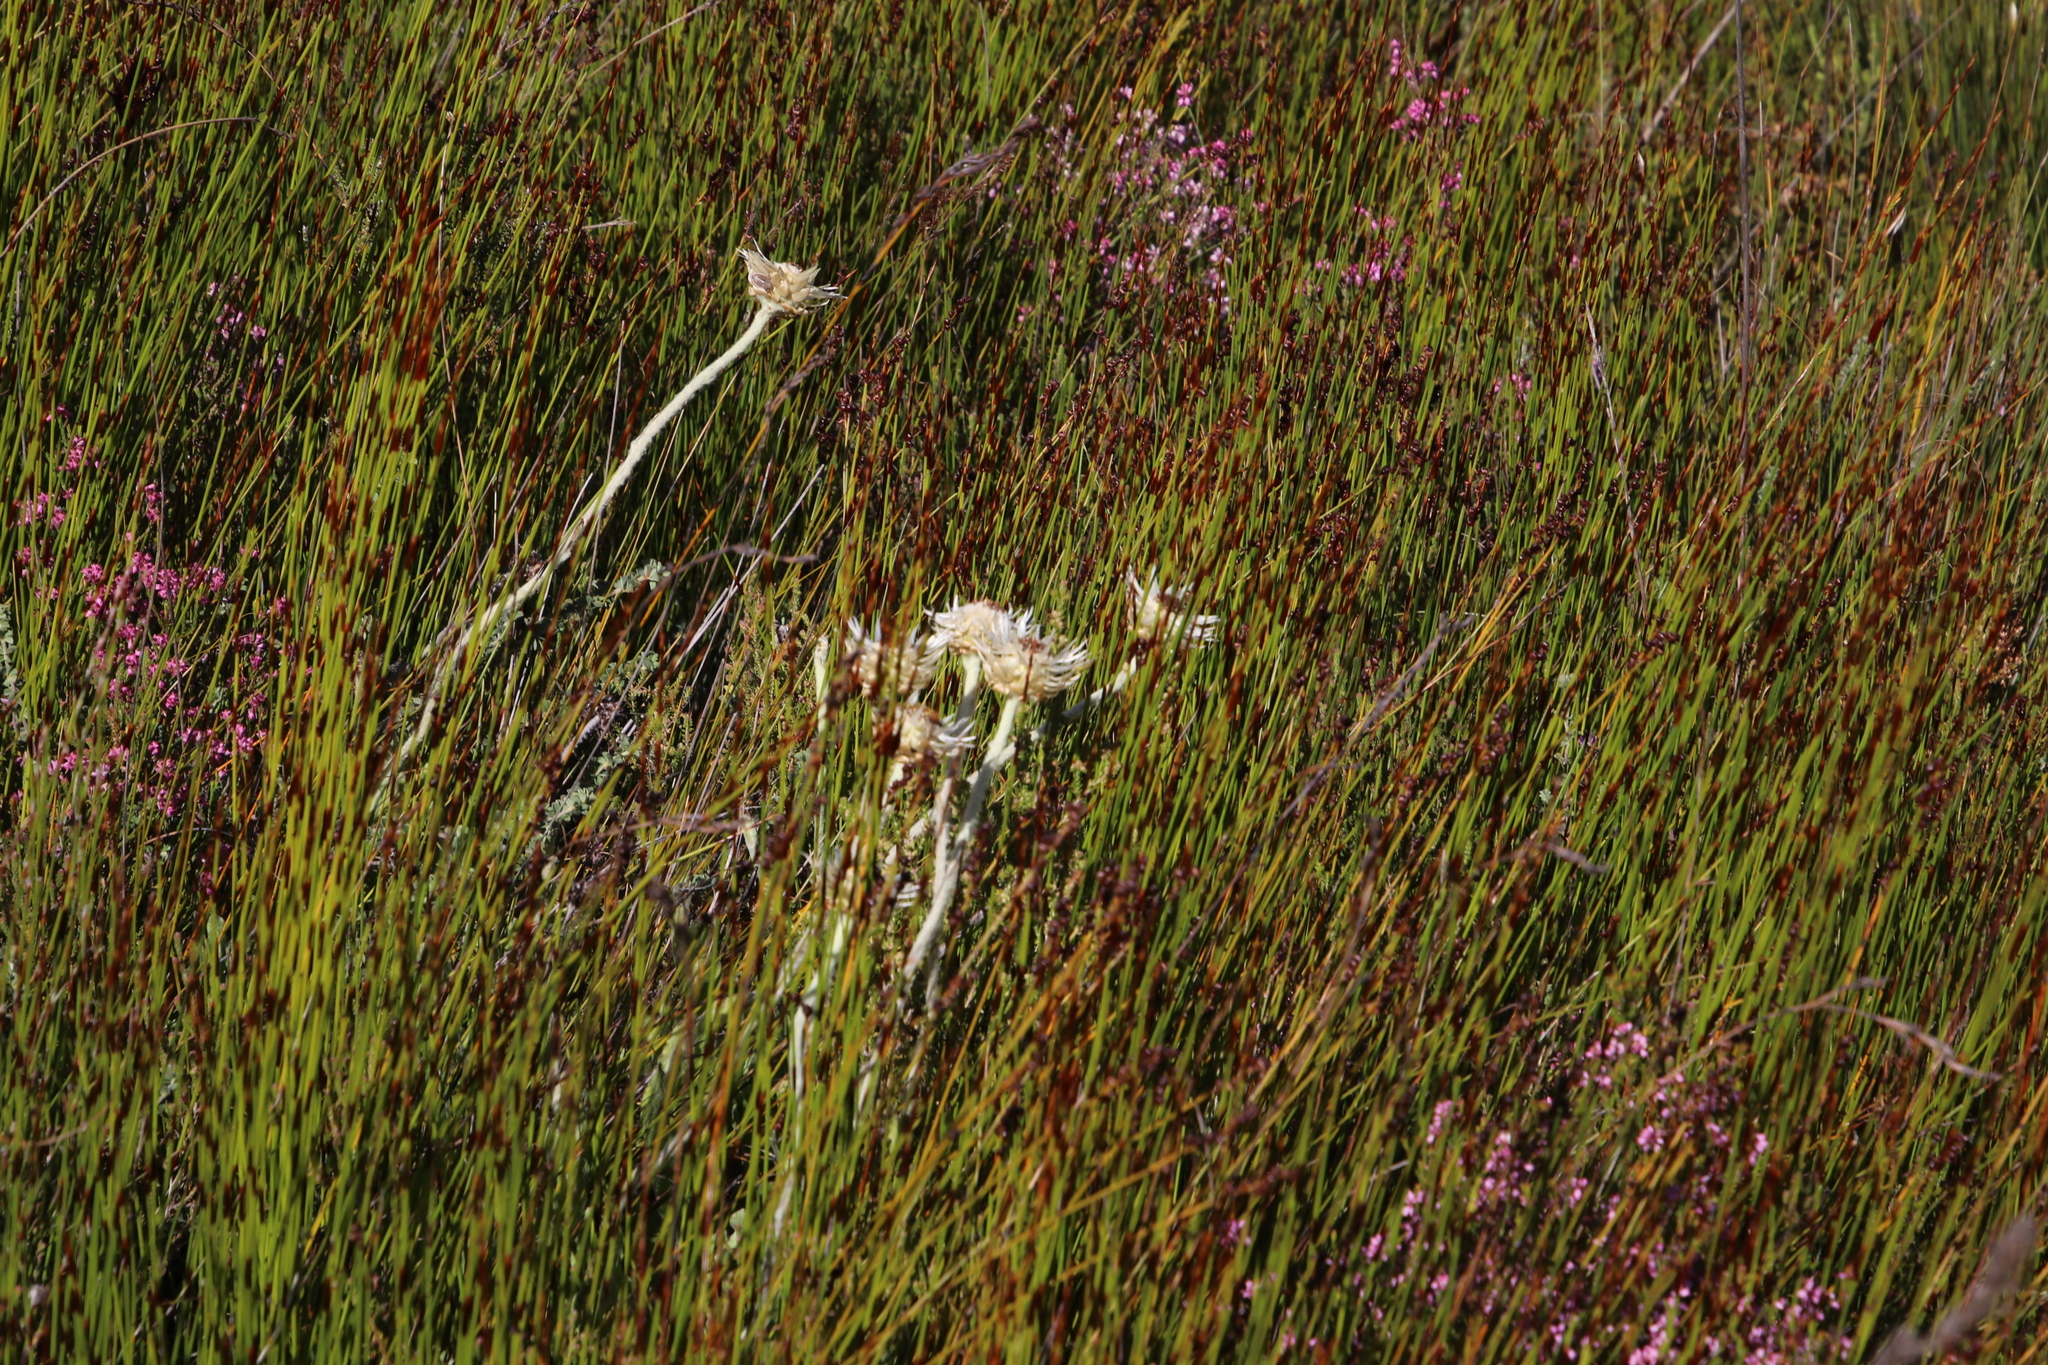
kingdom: Plantae
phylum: Tracheophyta
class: Magnoliopsida
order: Asterales
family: Asteraceae
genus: Syncarpha
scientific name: Syncarpha speciosissima
